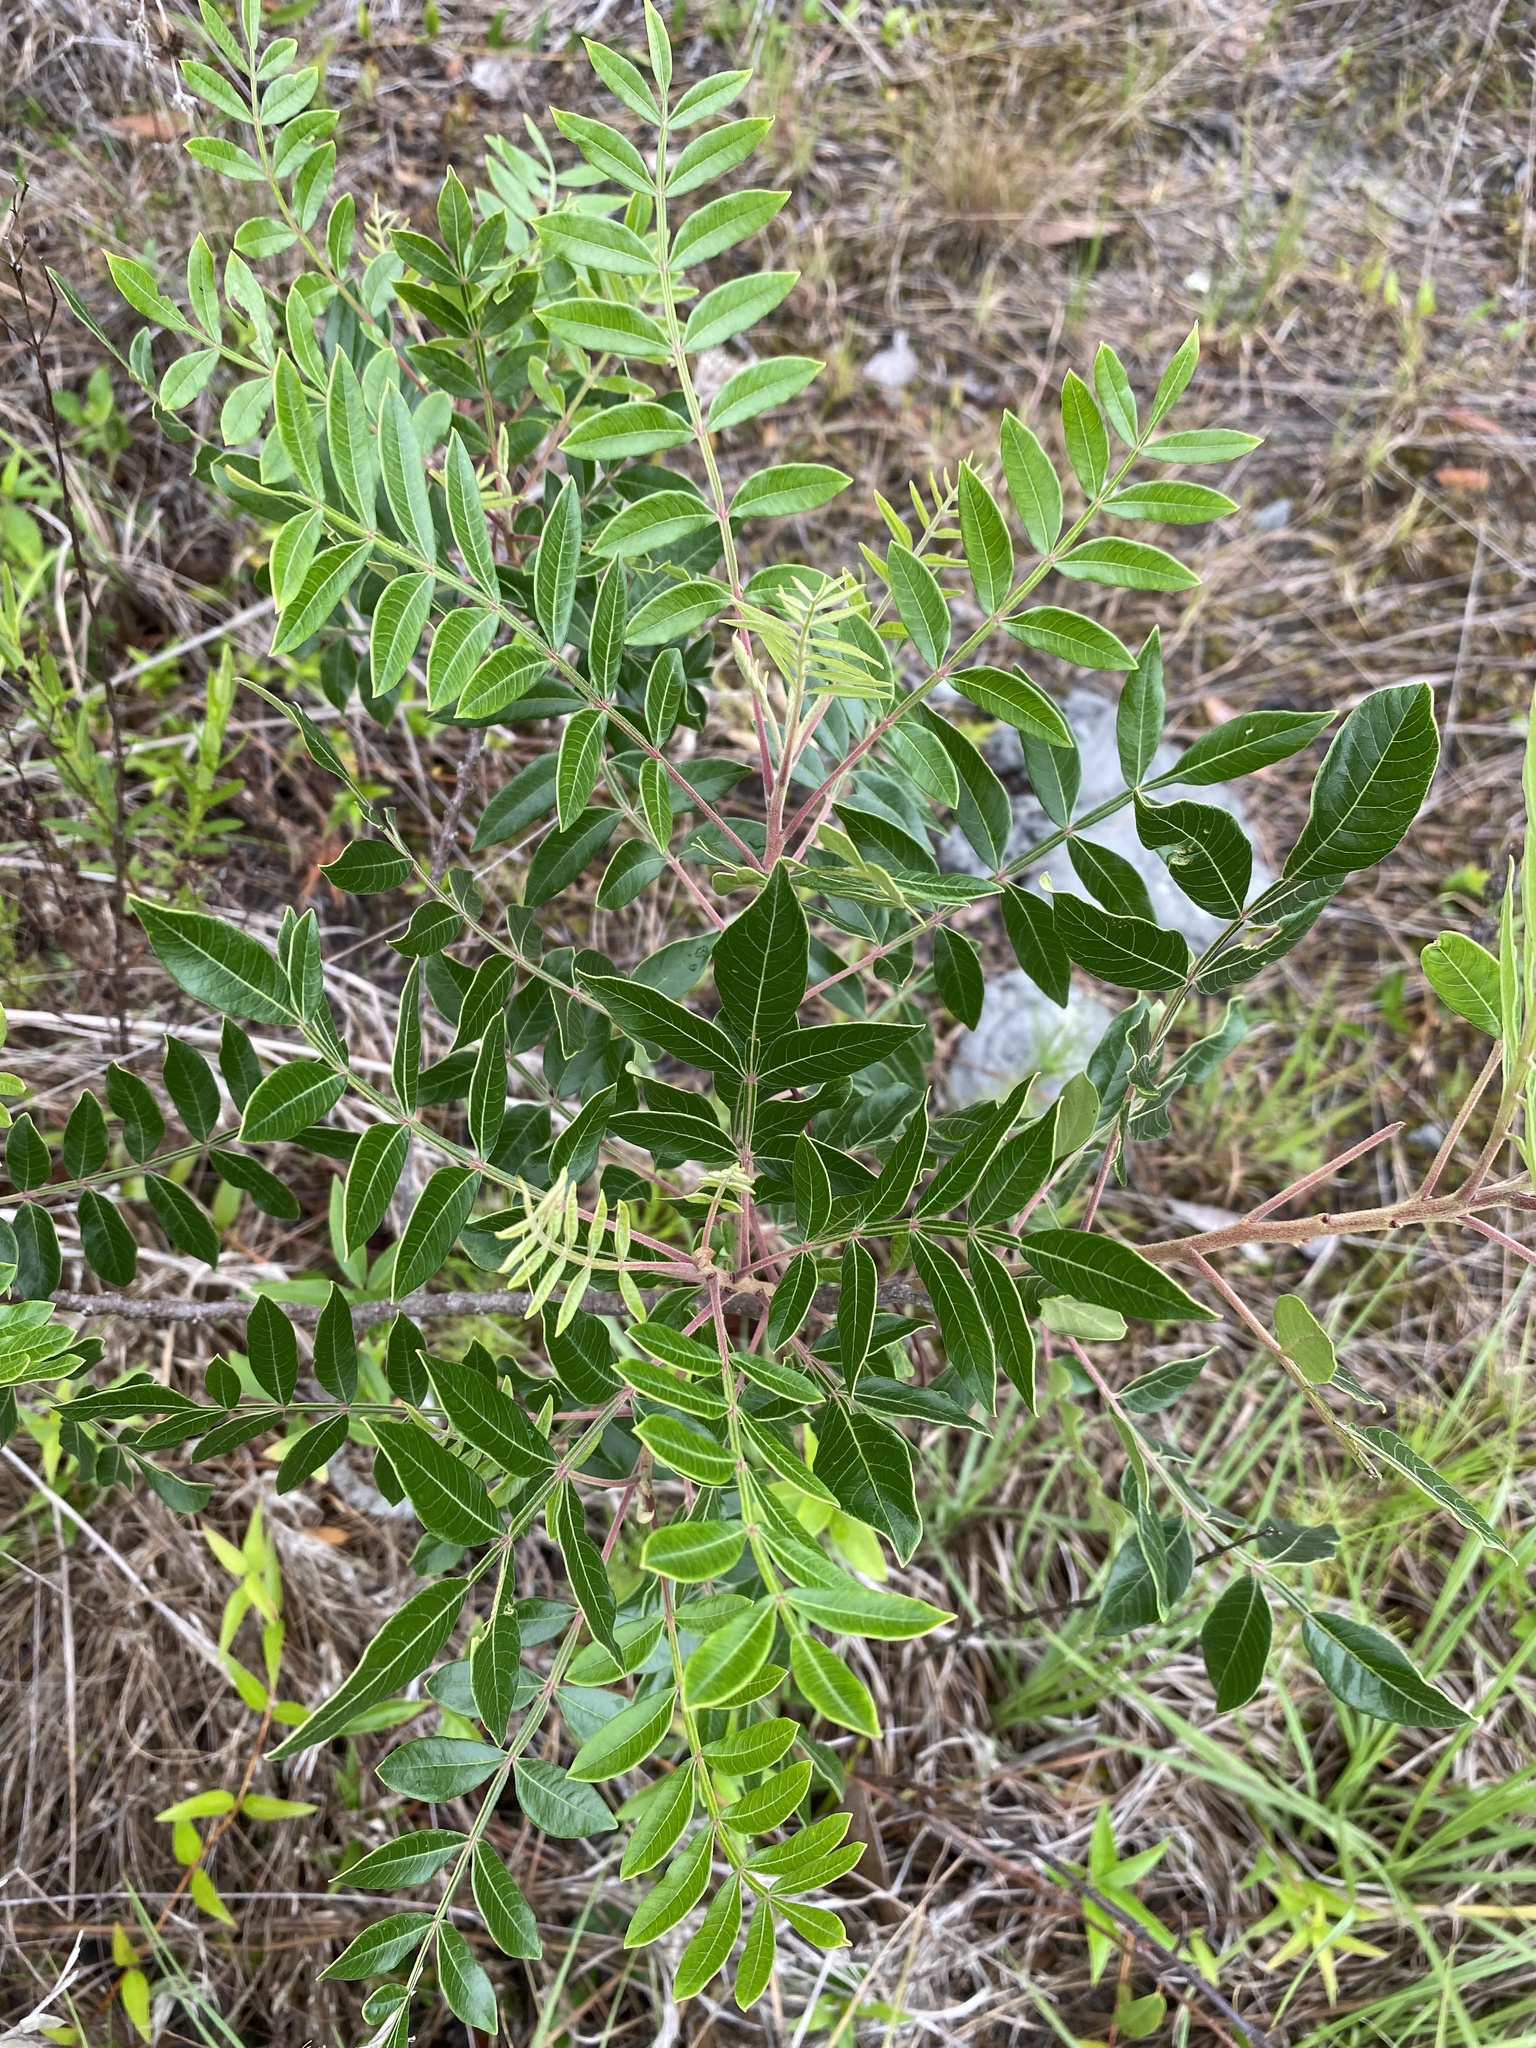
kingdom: Plantae
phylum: Tracheophyta
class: Magnoliopsida
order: Sapindales
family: Anacardiaceae
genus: Rhus
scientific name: Rhus copallina
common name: Shining sumac
